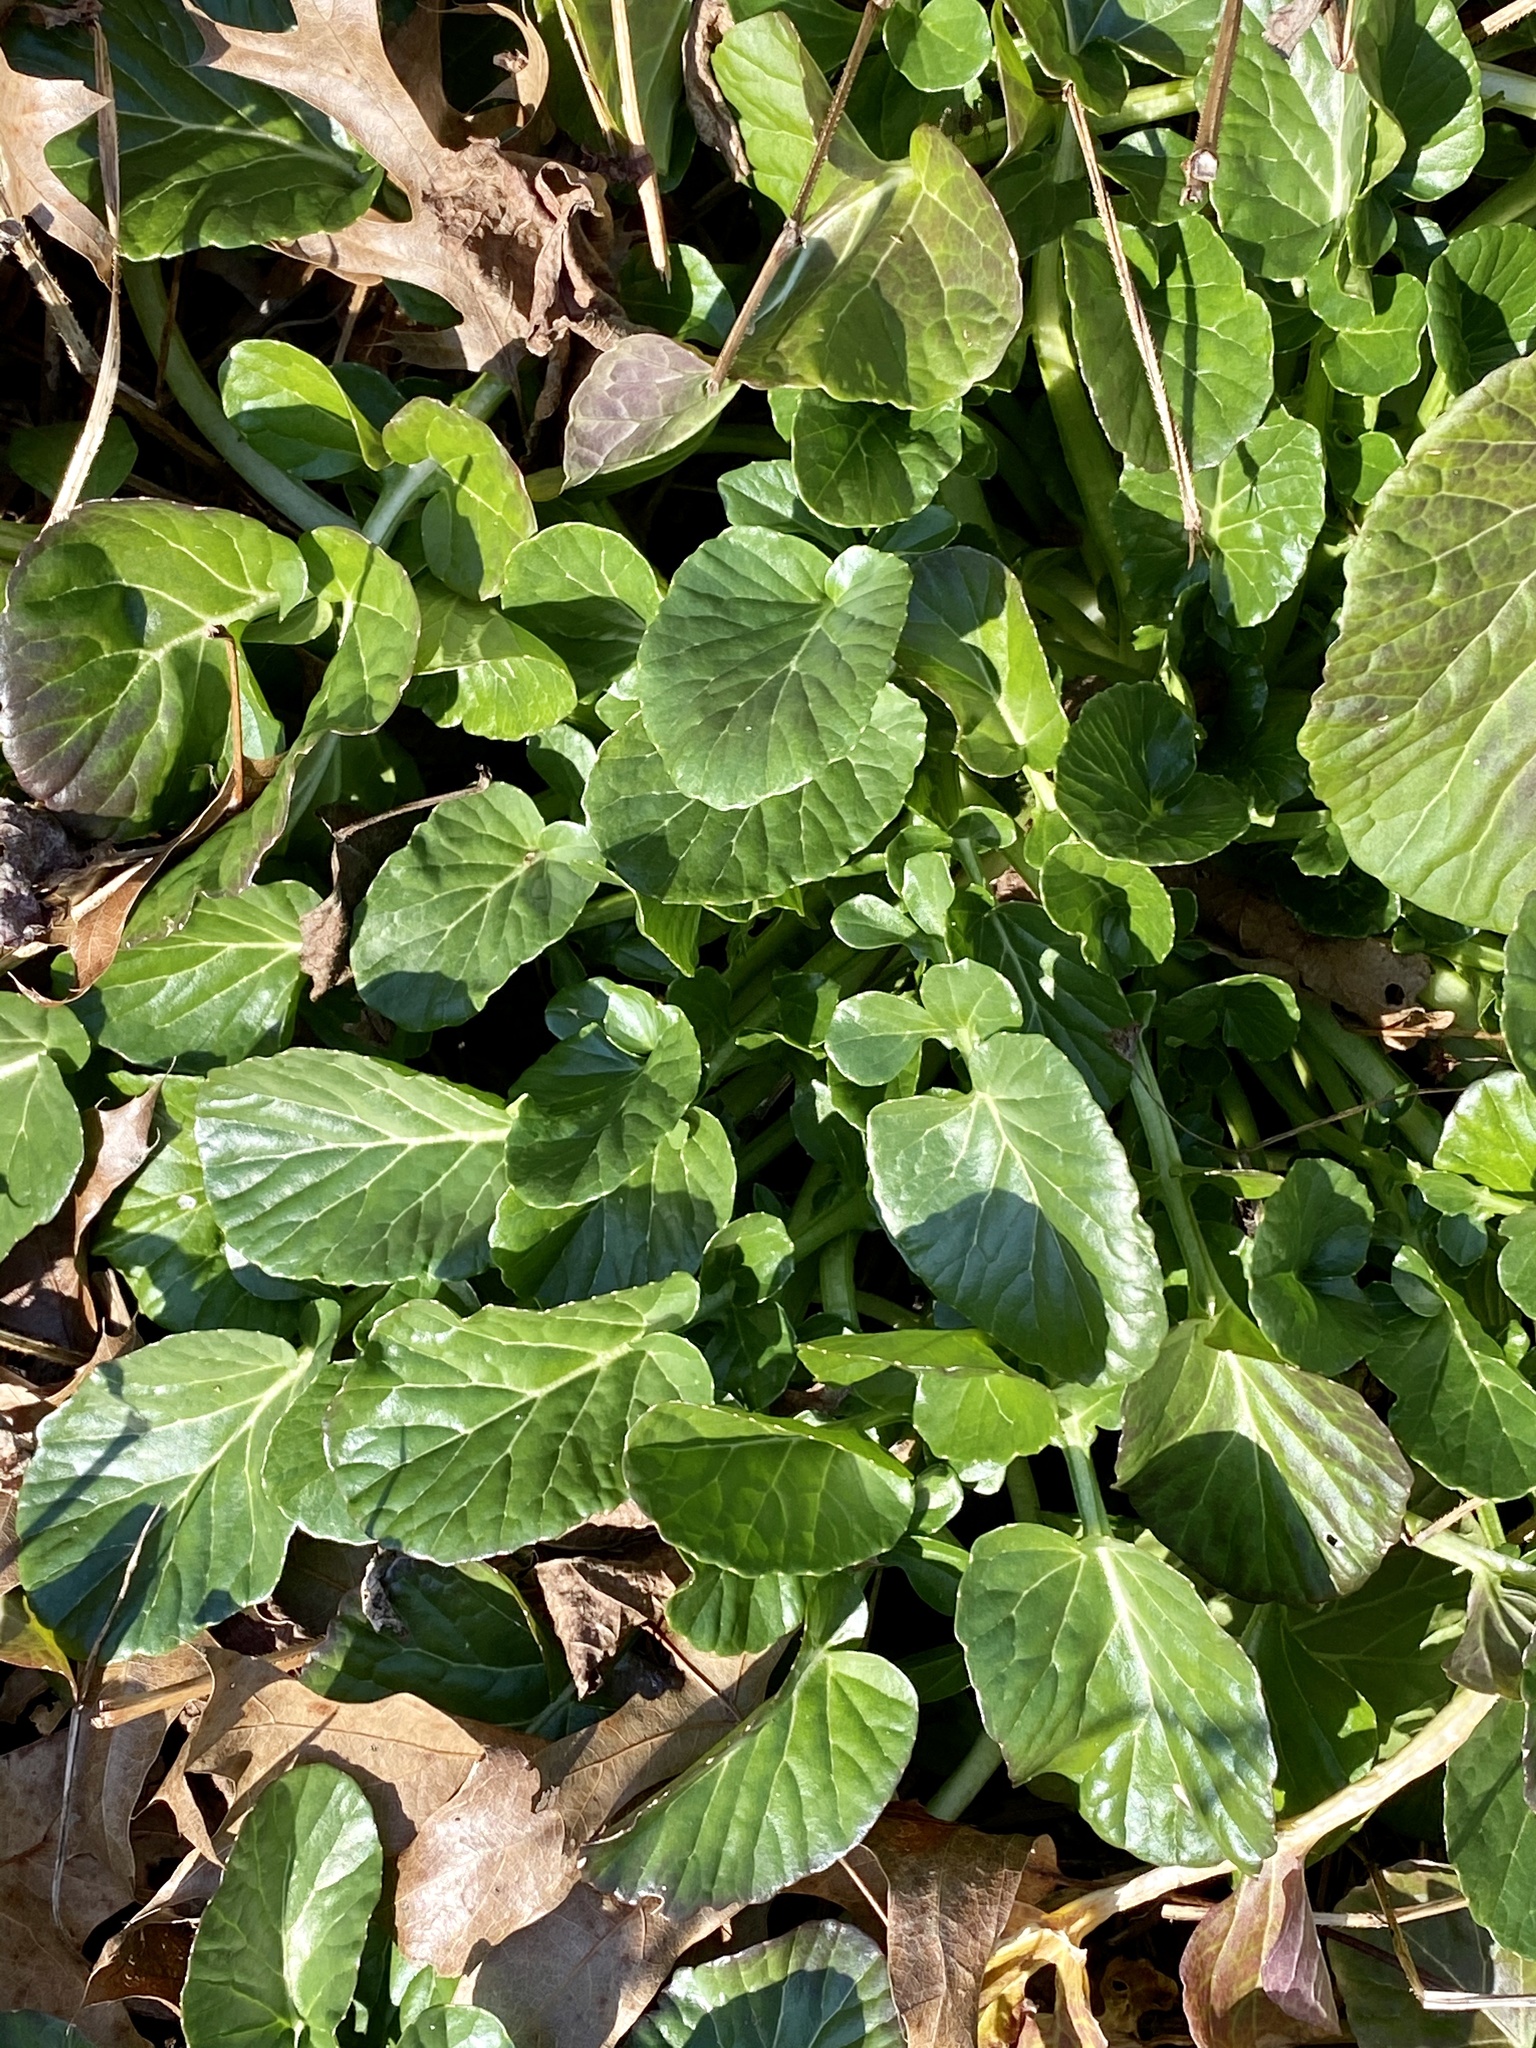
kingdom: Plantae
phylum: Tracheophyta
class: Magnoliopsida
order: Brassicales
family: Brassicaceae
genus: Barbarea
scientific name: Barbarea vulgaris
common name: Cressy-greens
